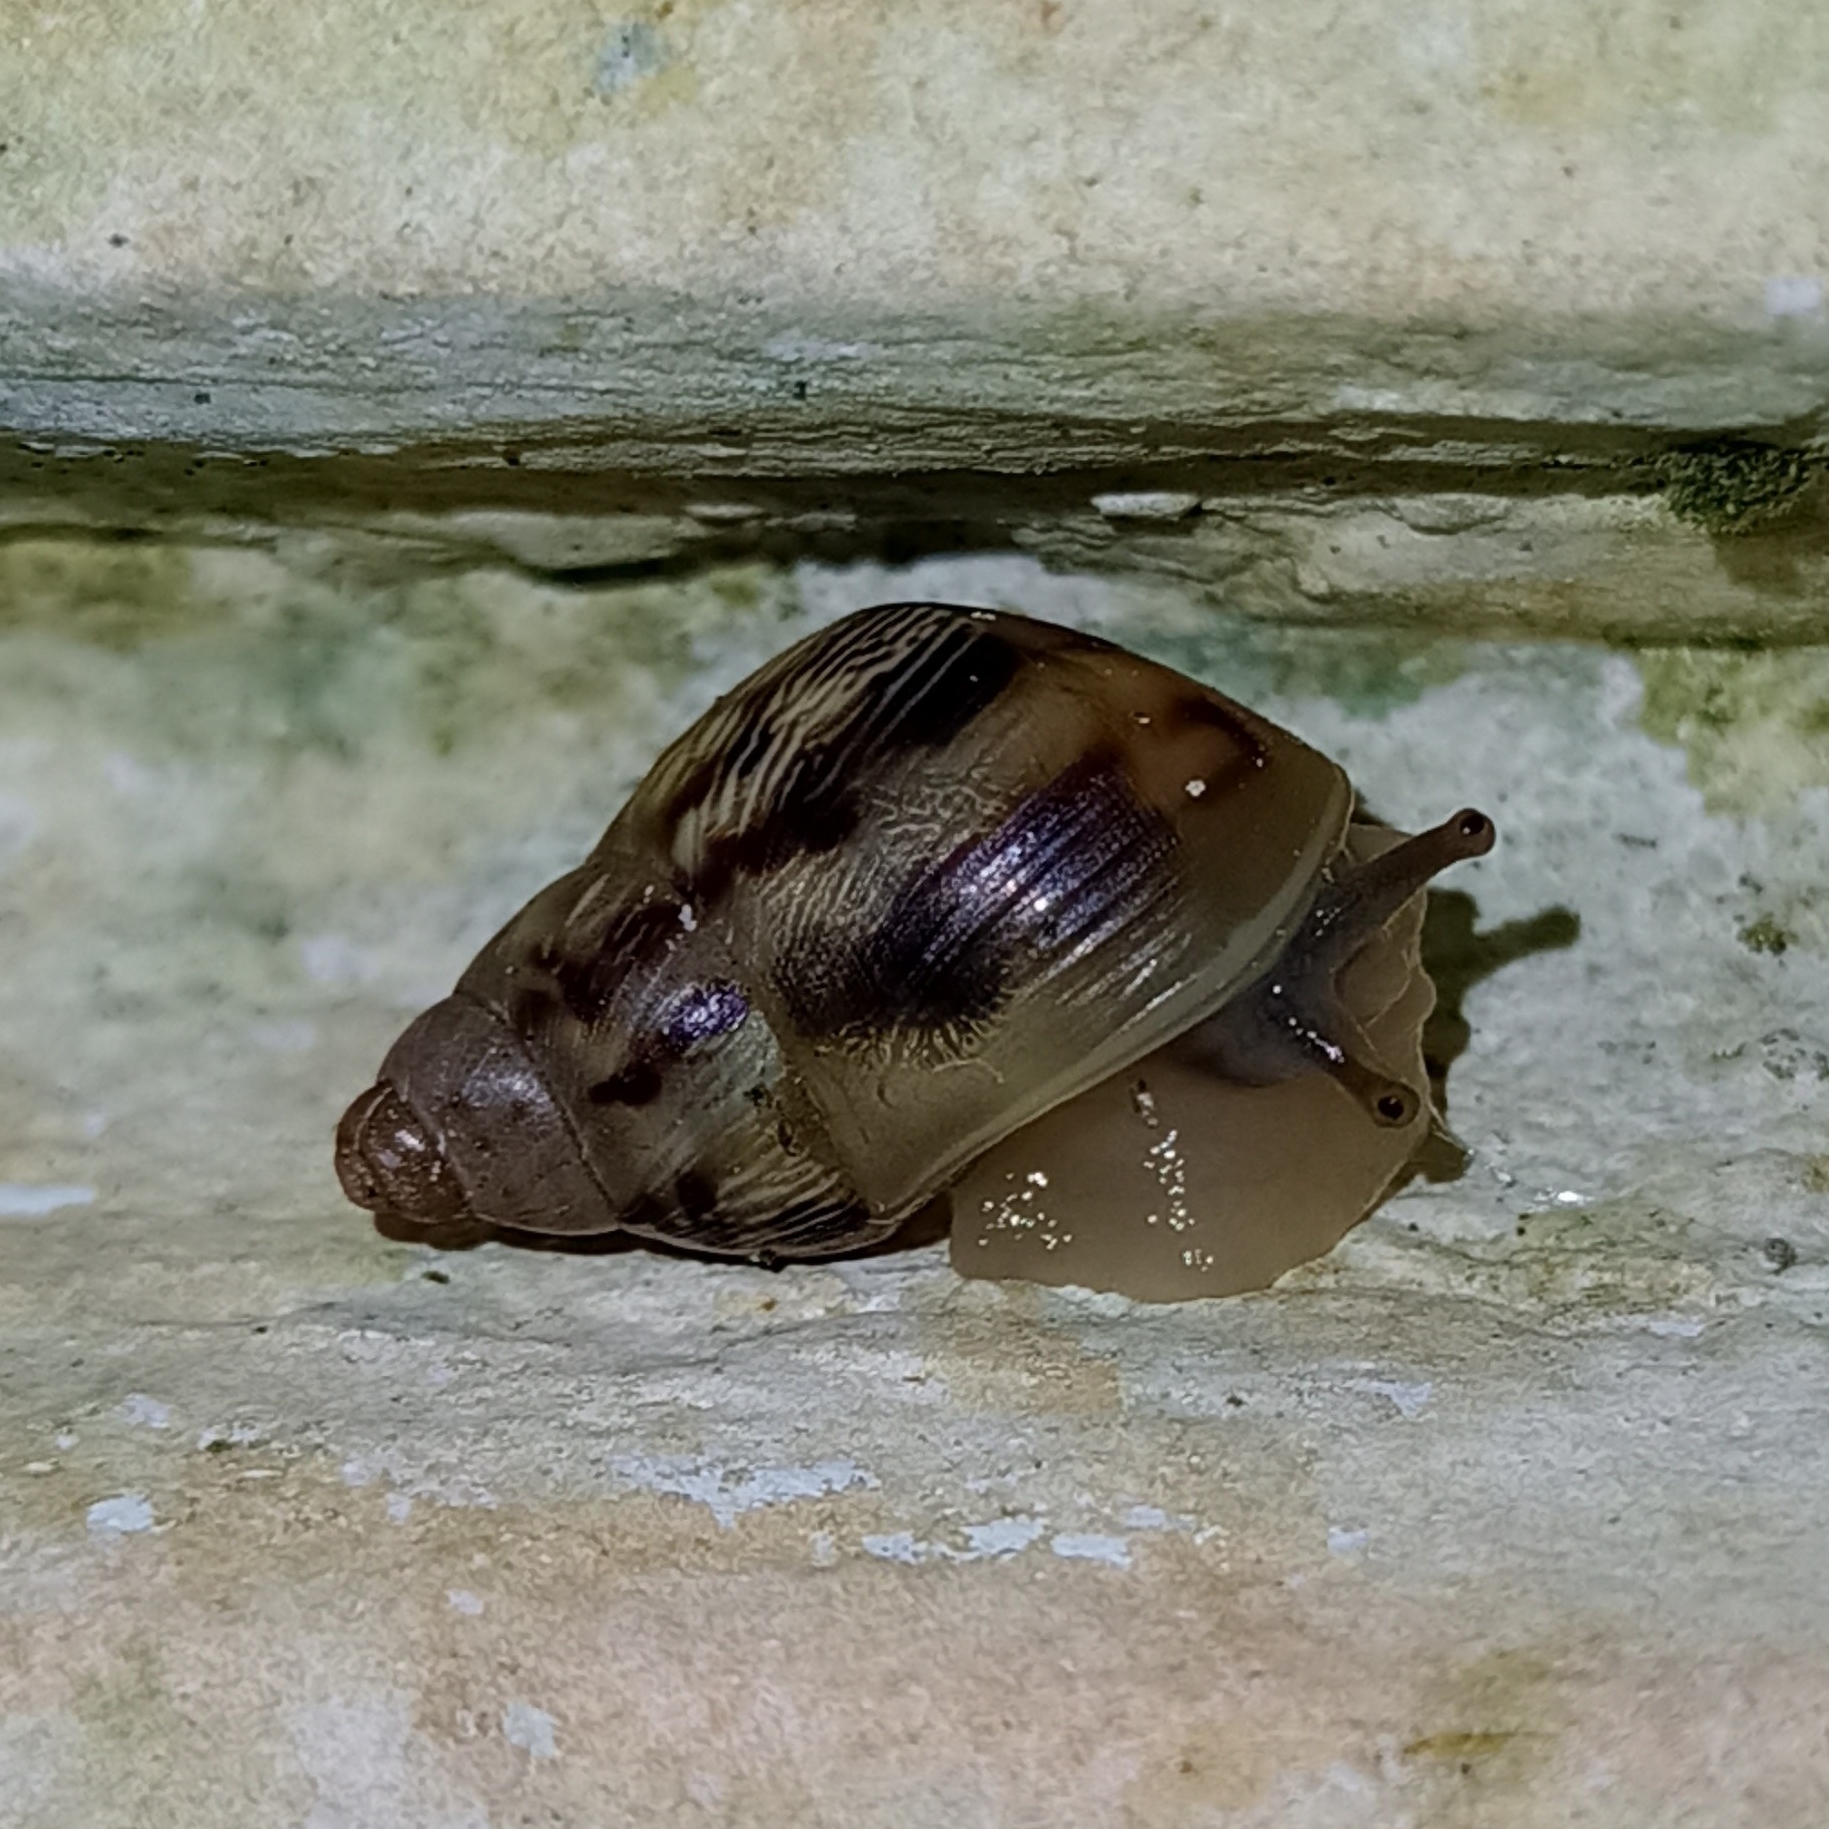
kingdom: Animalia
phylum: Mollusca
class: Gastropoda
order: Stylommatophora
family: Bulimulidae
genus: Drymaeus
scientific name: Drymaeus papyraceus
